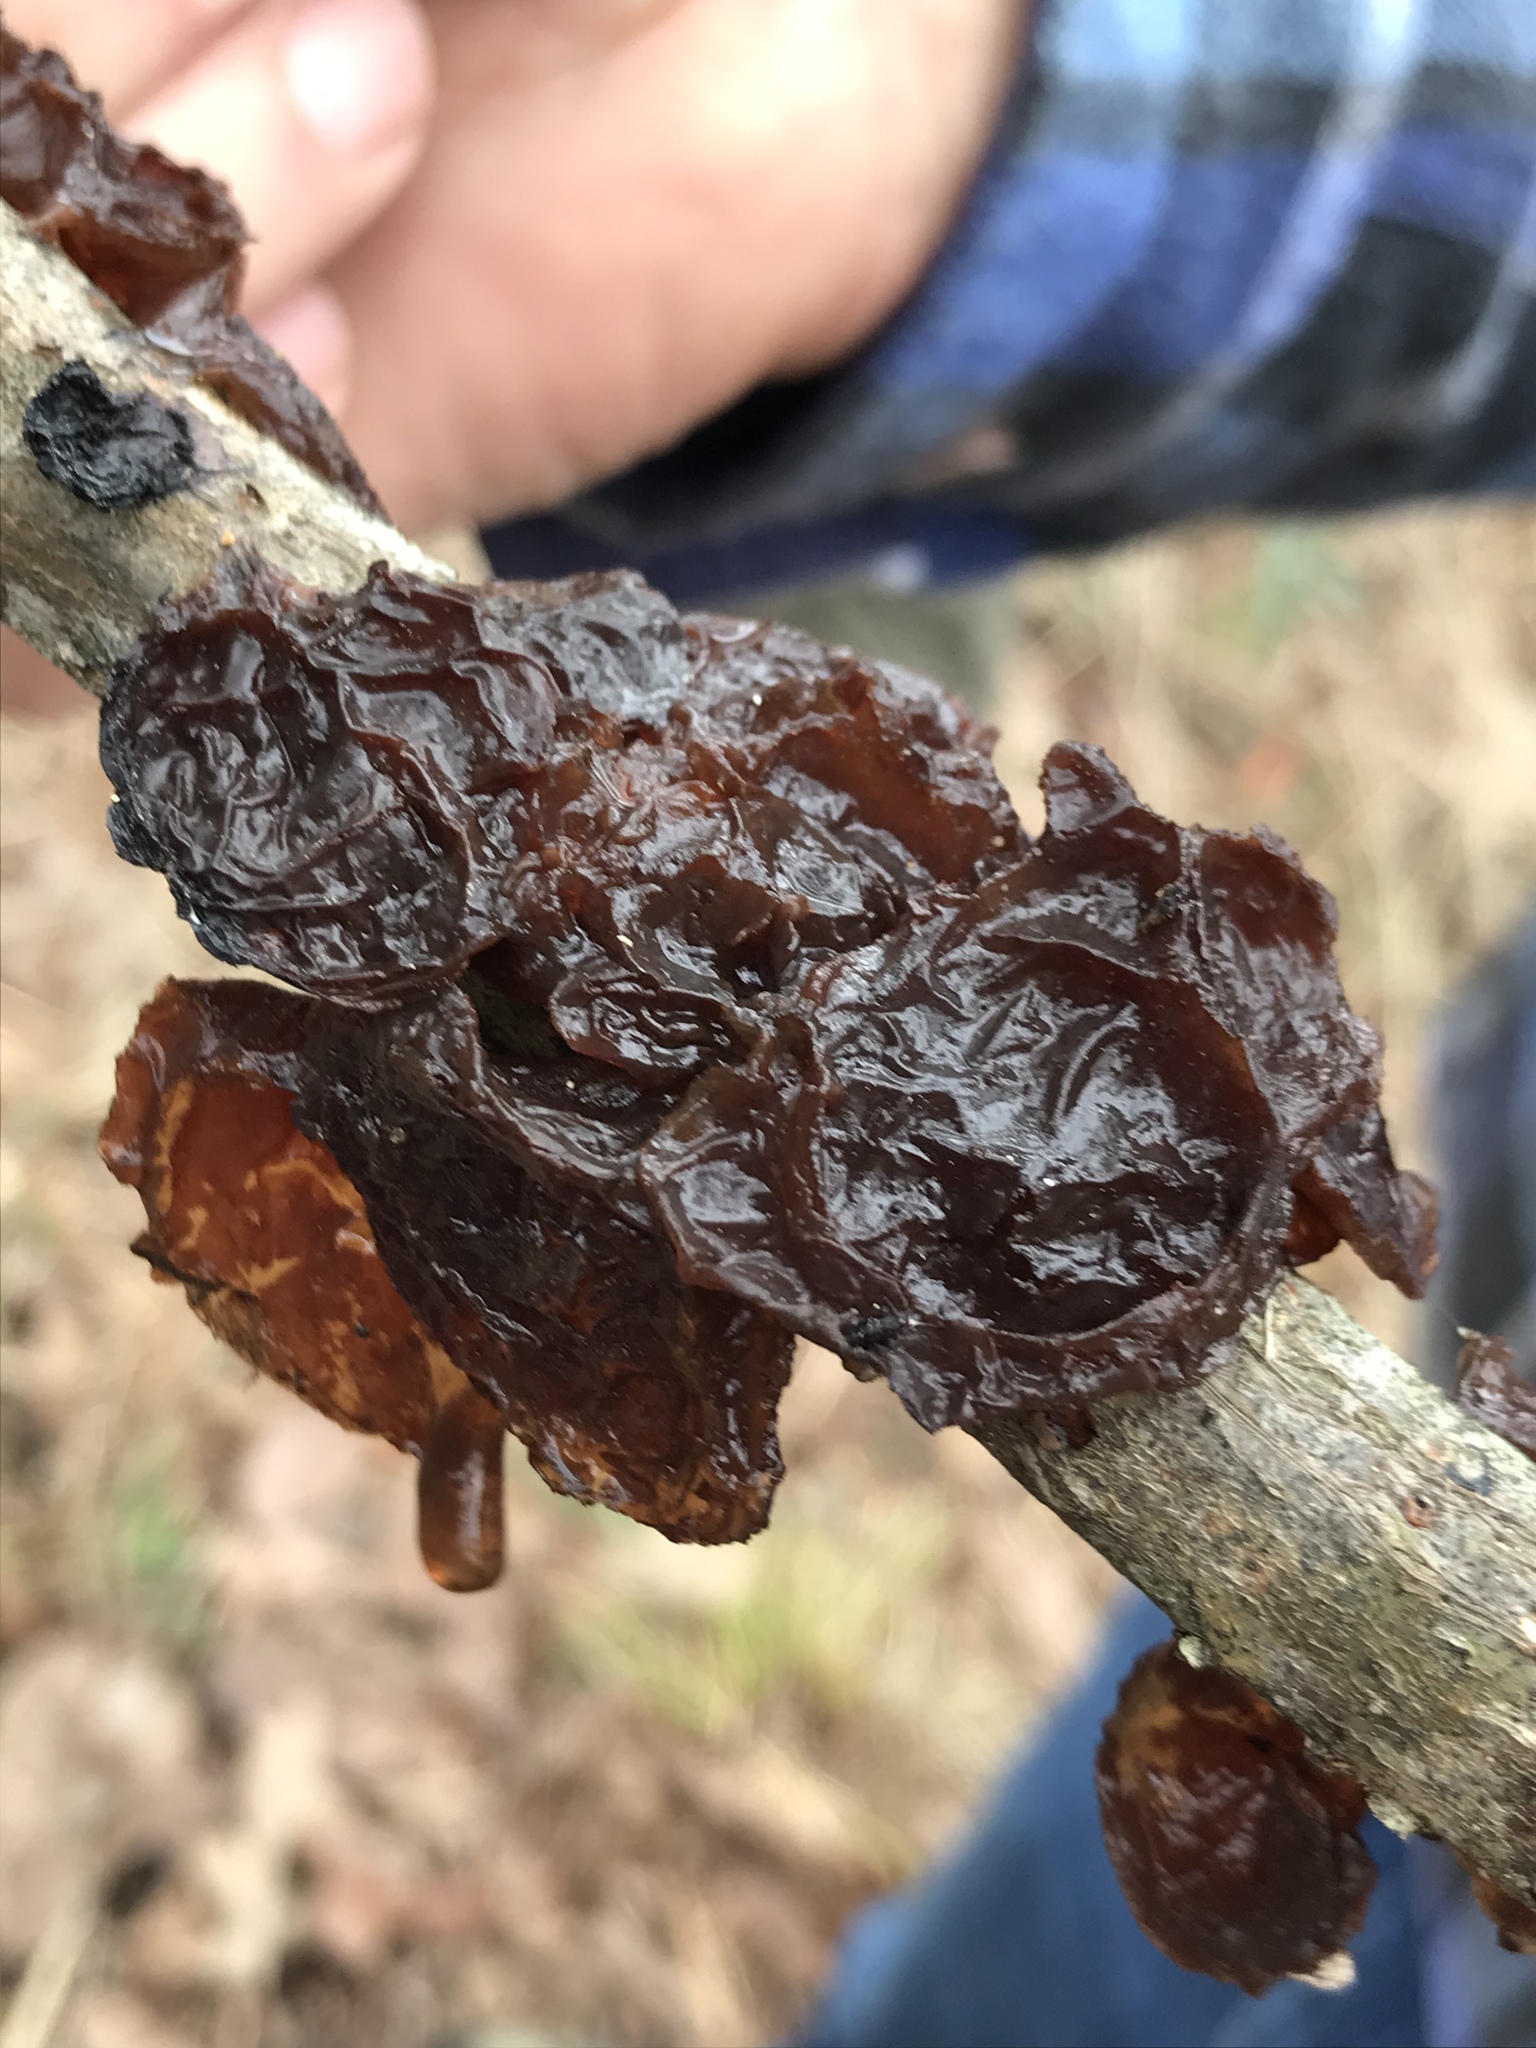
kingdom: Fungi
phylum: Basidiomycota
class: Agaricomycetes
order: Auriculariales
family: Auriculariaceae
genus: Exidia
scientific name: Exidia
